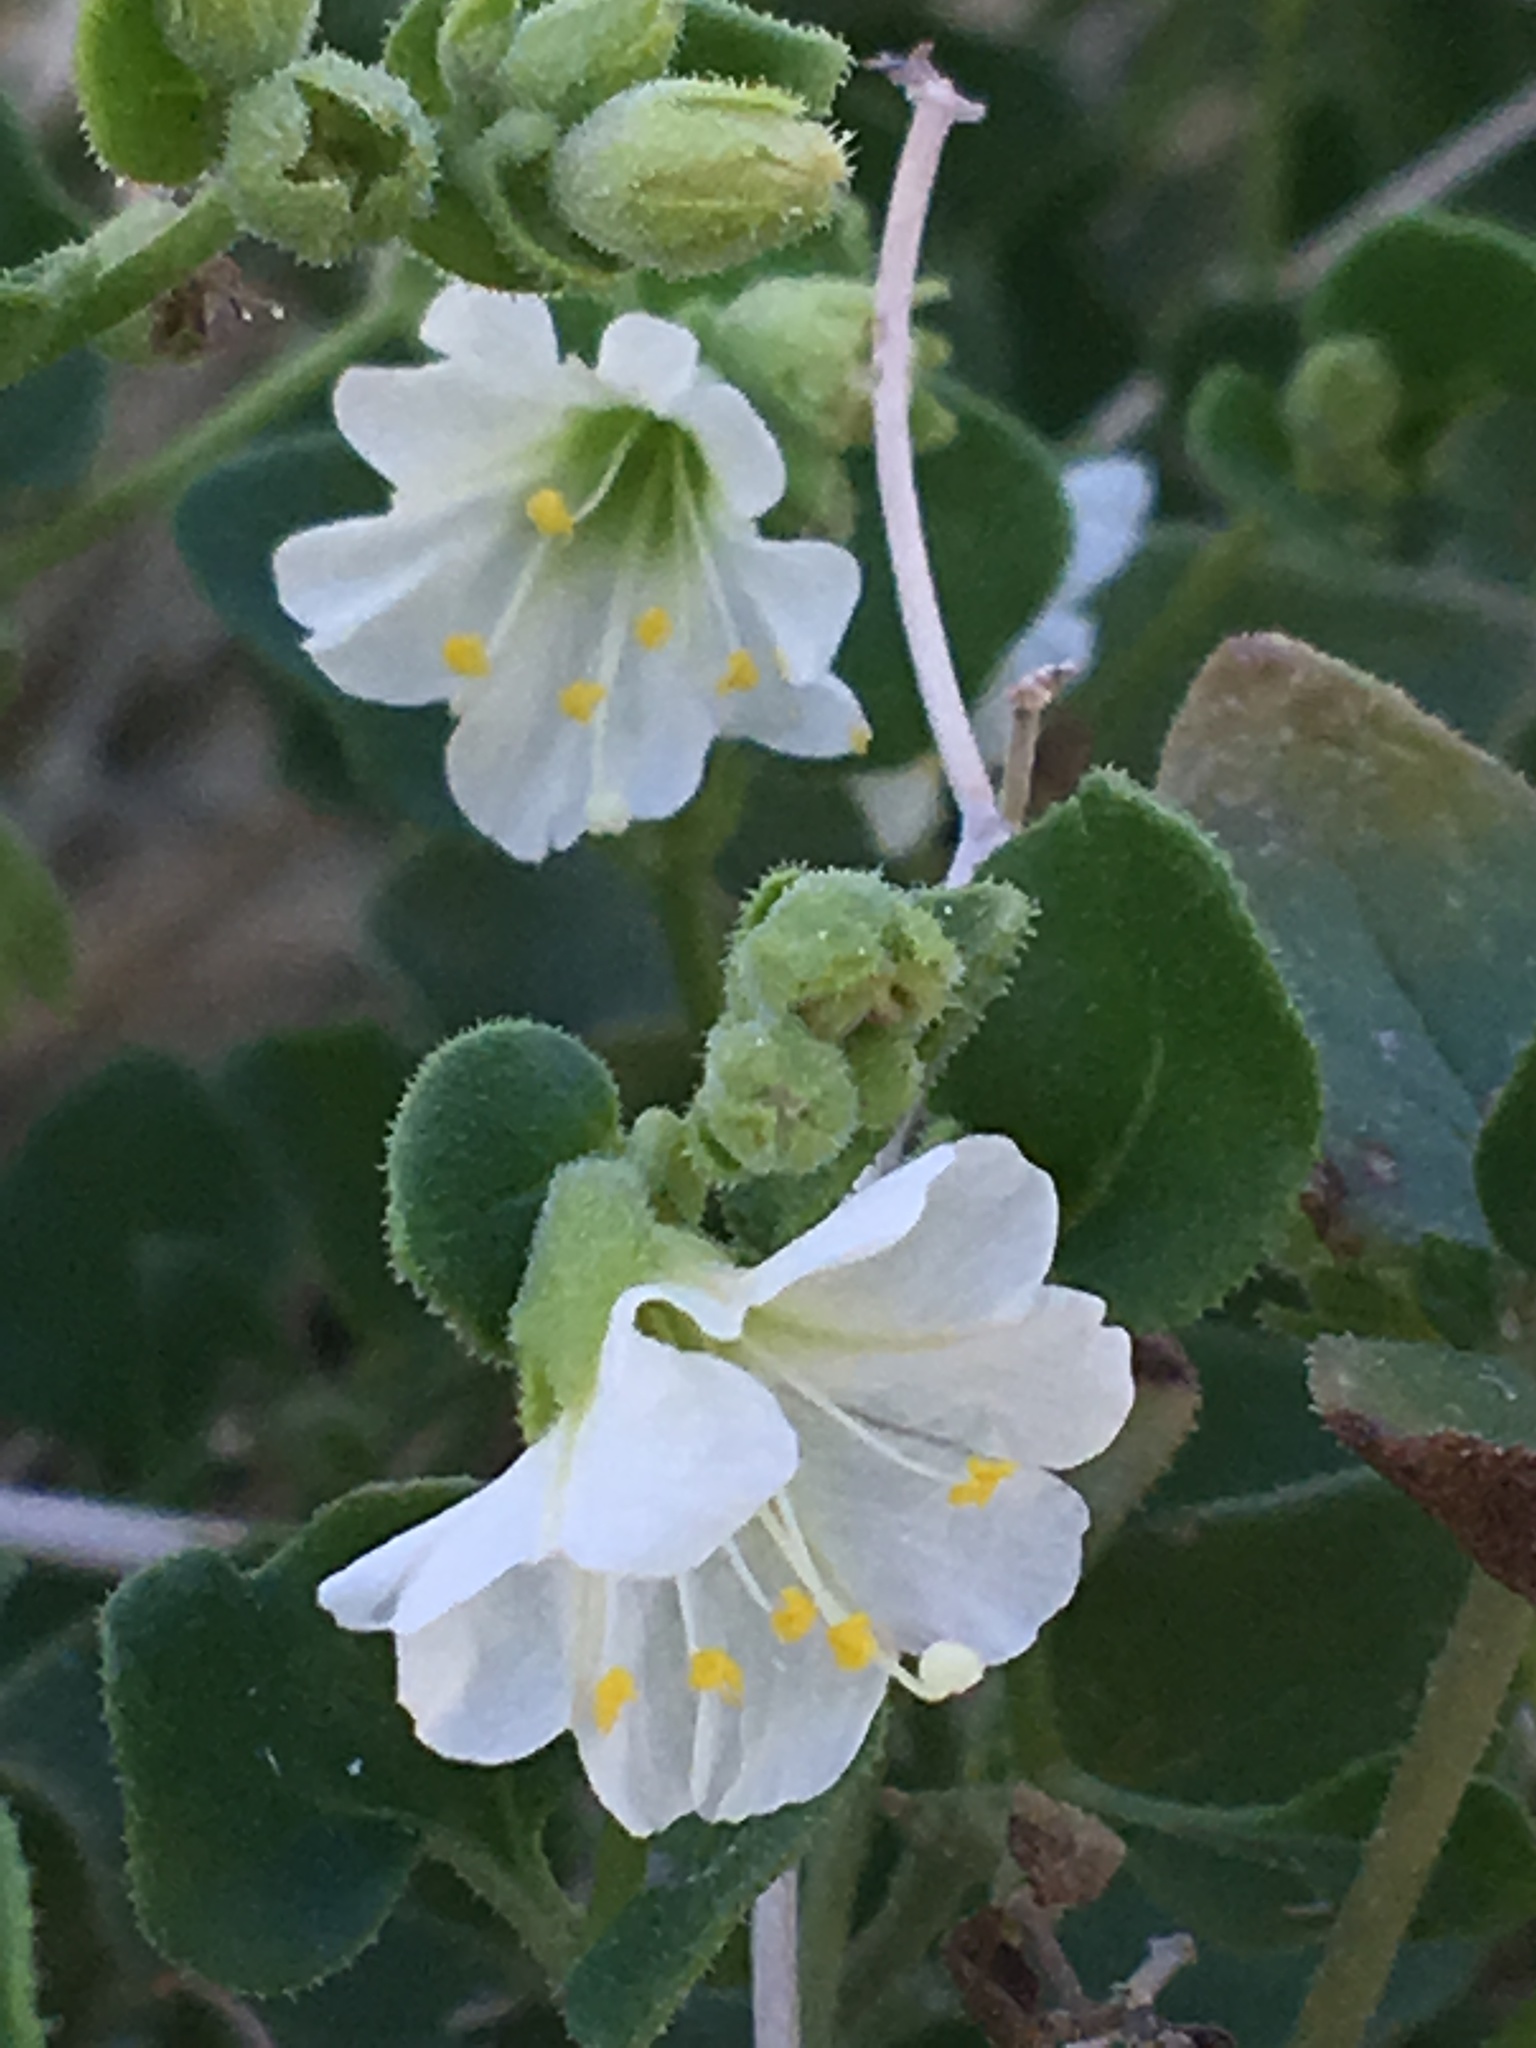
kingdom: Plantae
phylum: Tracheophyta
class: Magnoliopsida
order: Caryophyllales
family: Nyctaginaceae
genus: Mirabilis
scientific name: Mirabilis laevis
